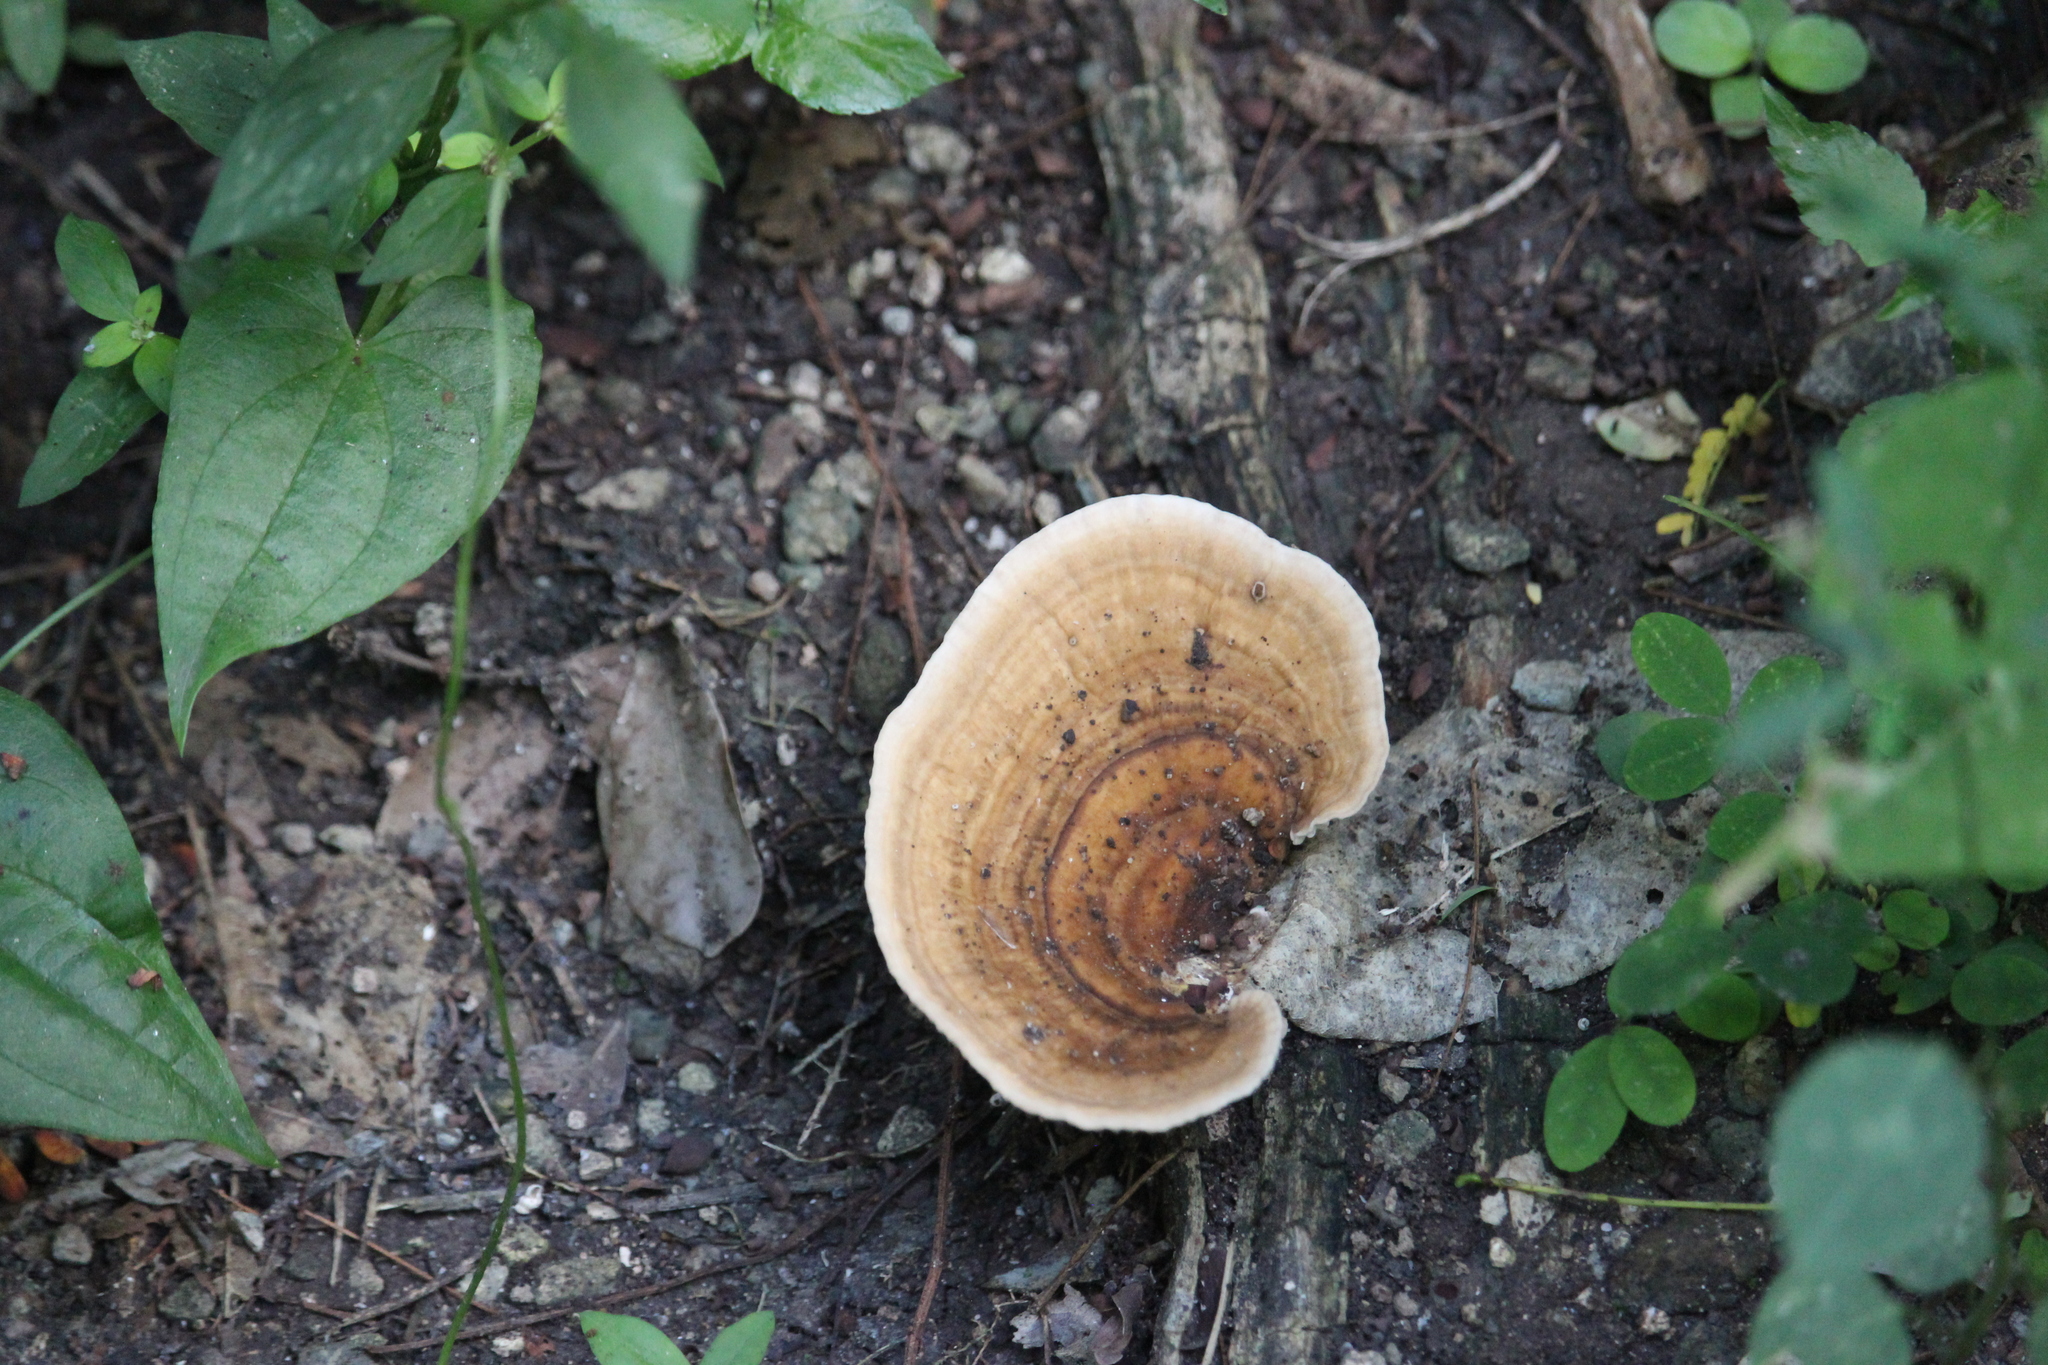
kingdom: Fungi
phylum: Basidiomycota
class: Agaricomycetes
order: Polyporales
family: Polyporaceae
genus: Trametes
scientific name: Trametes cubensis
